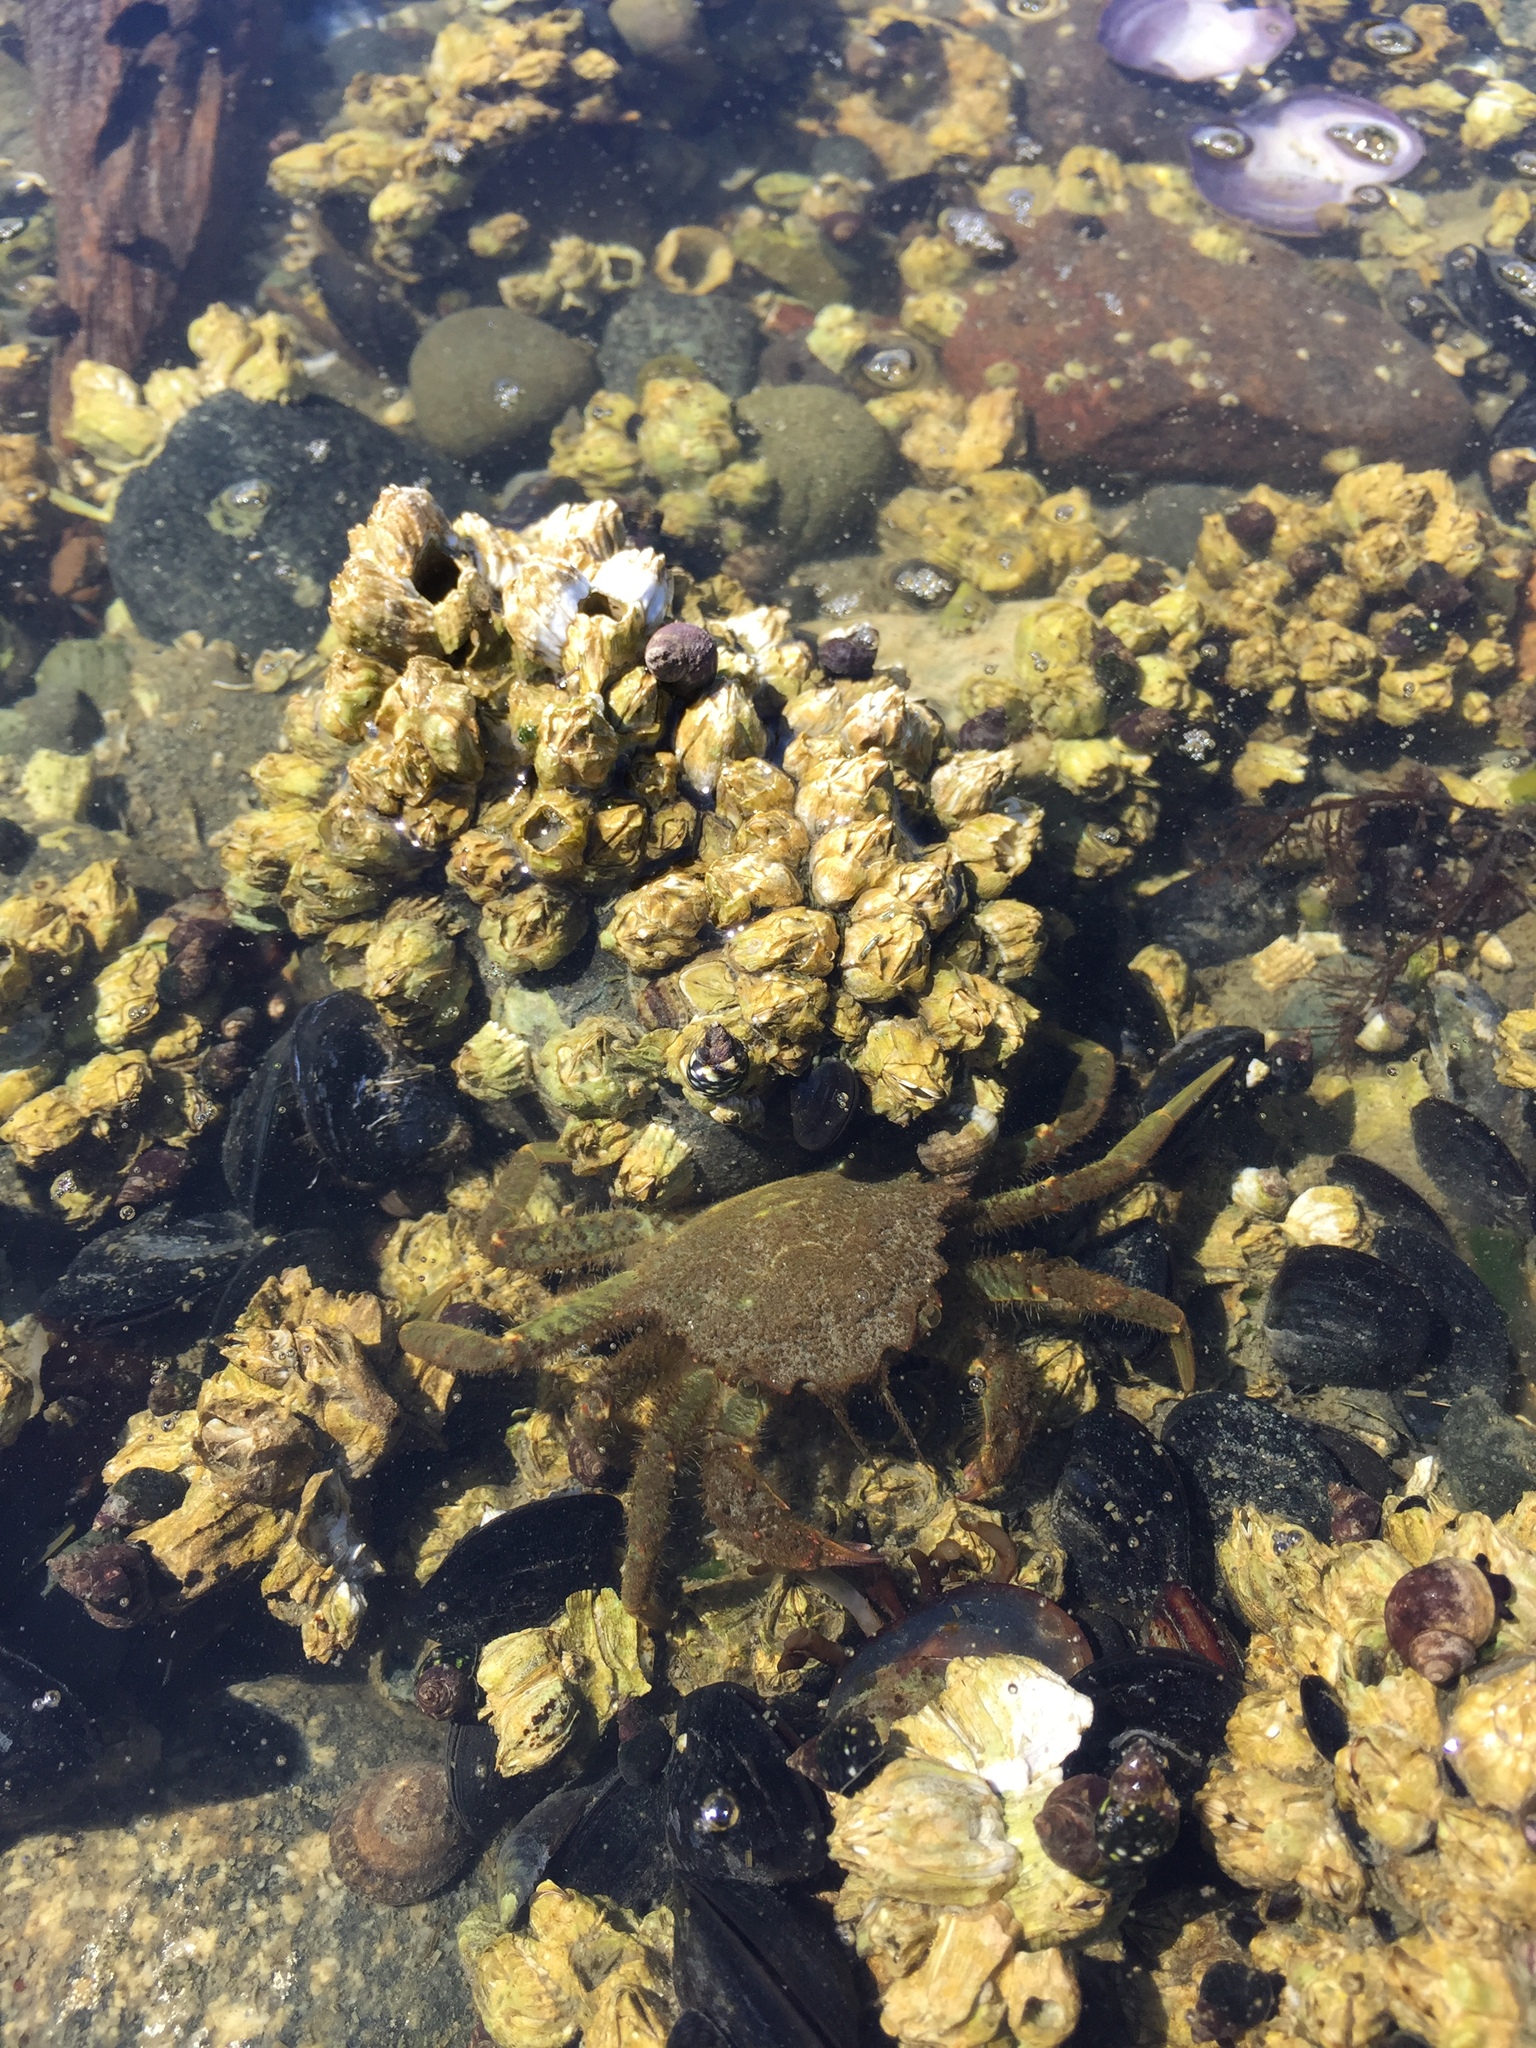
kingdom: Animalia
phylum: Arthropoda
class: Malacostraca
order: Decapoda
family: Cheiragonidae
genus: Telmessus
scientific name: Telmessus cheiragonus
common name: Helmet crab
